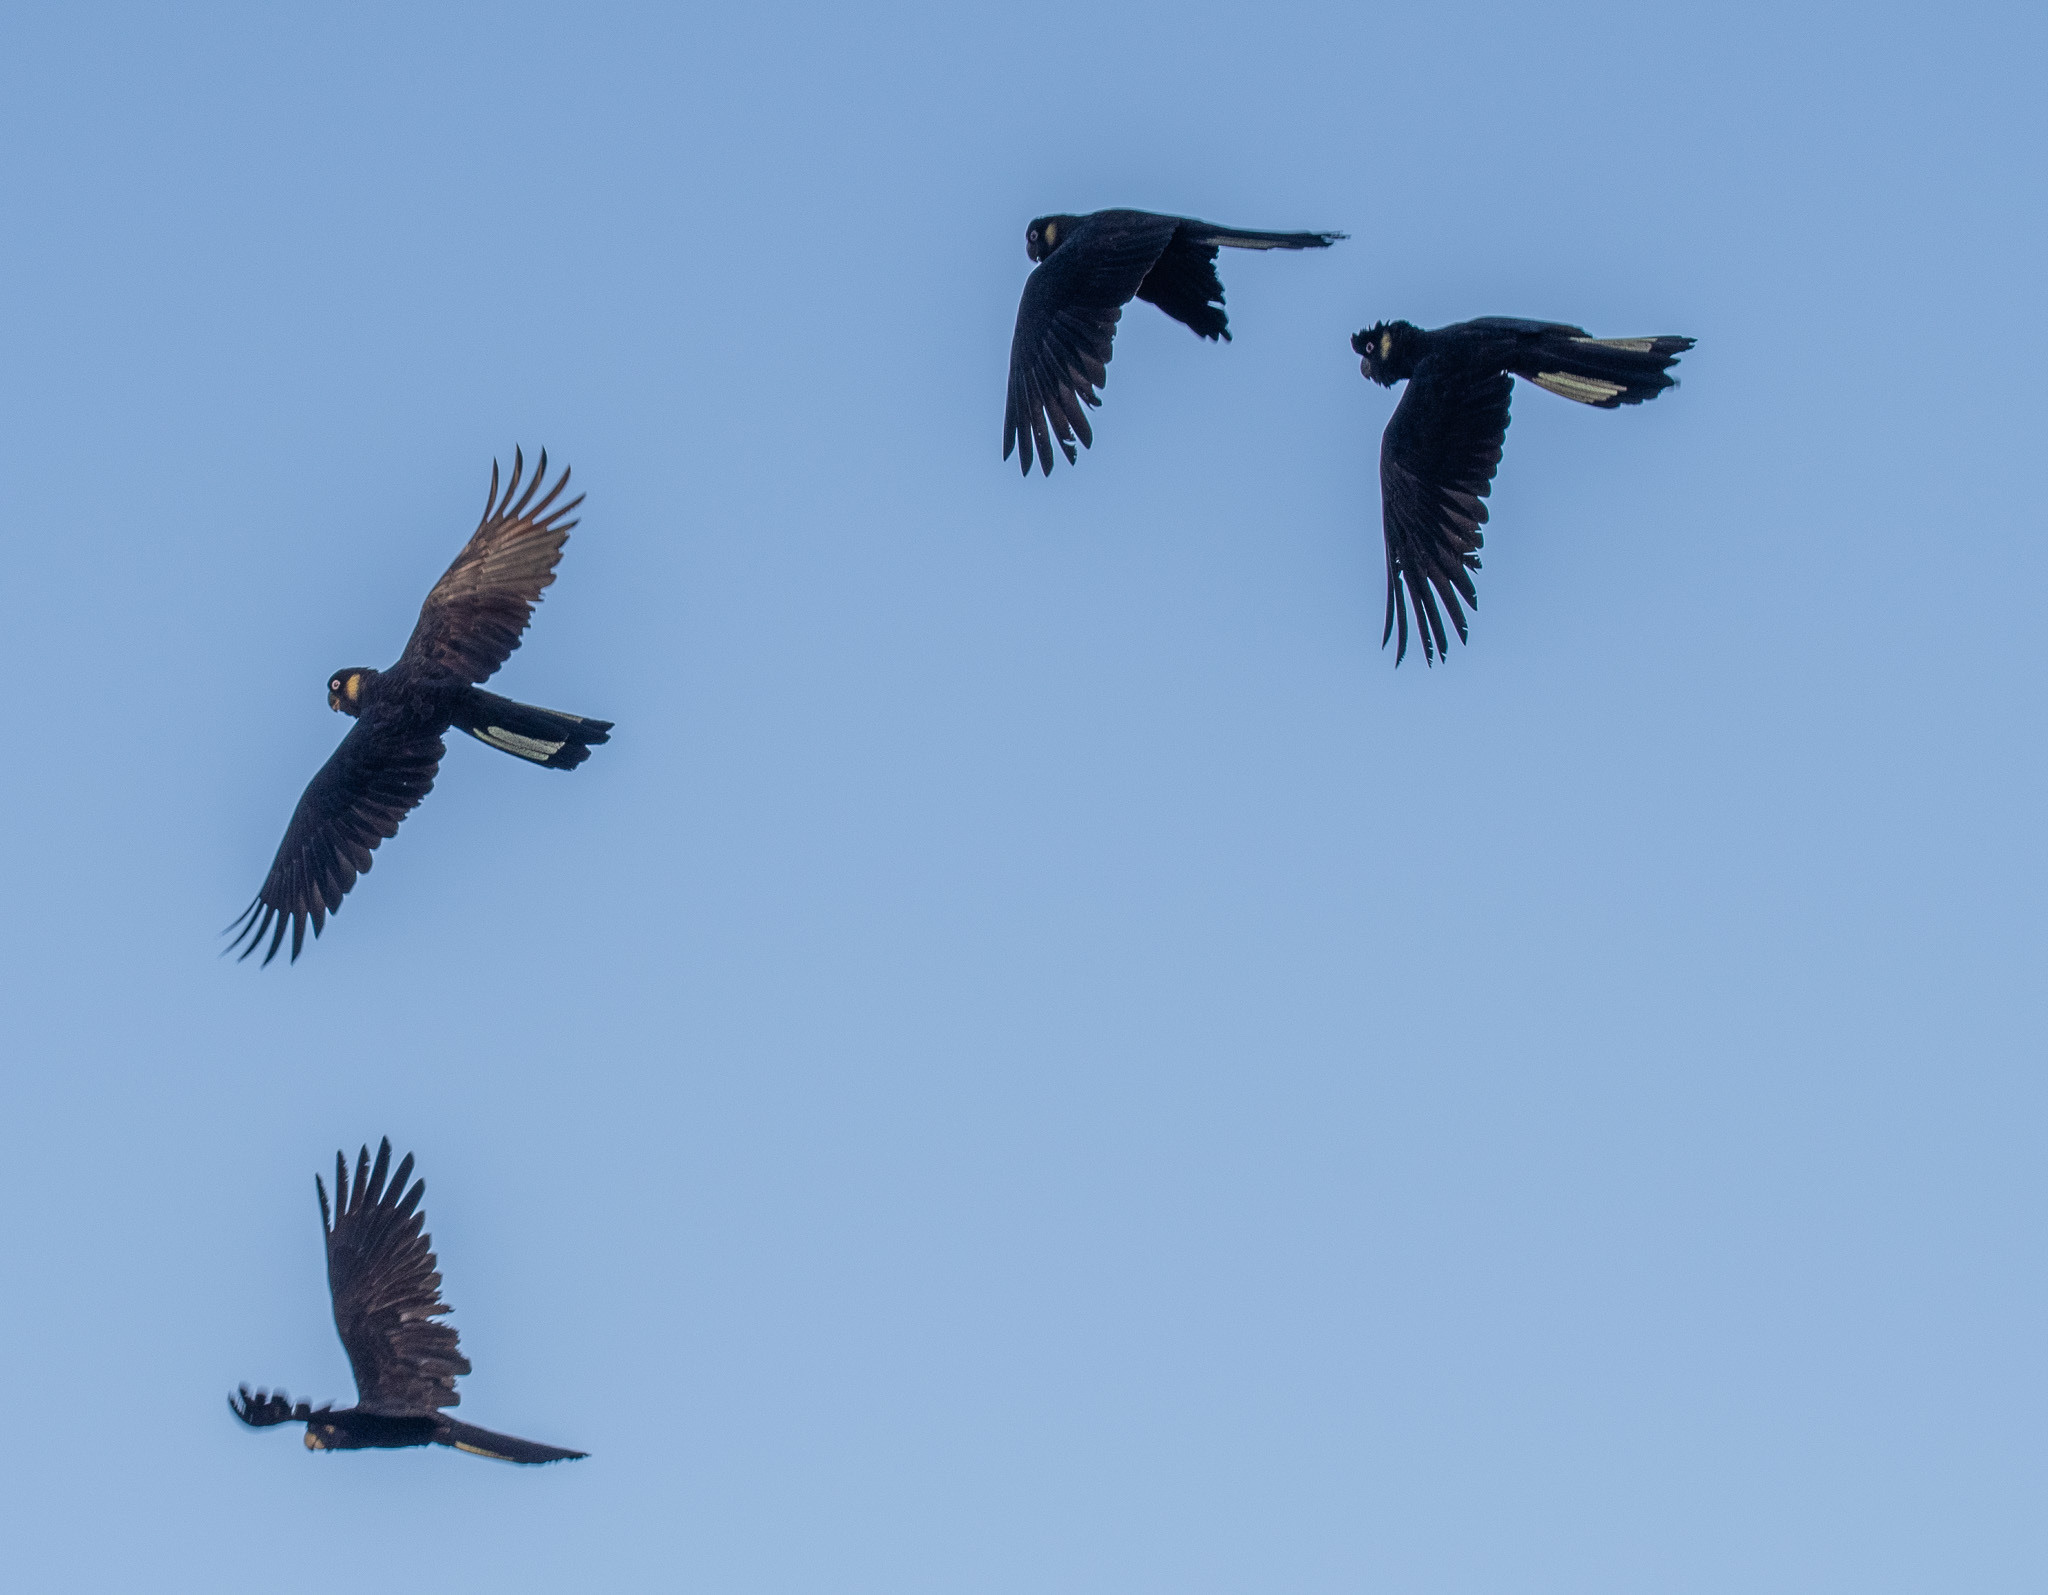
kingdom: Animalia
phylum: Chordata
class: Aves
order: Psittaciformes
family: Cacatuidae
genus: Zanda
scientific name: Zanda funerea
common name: Yellow-tailed black-cockatoo
